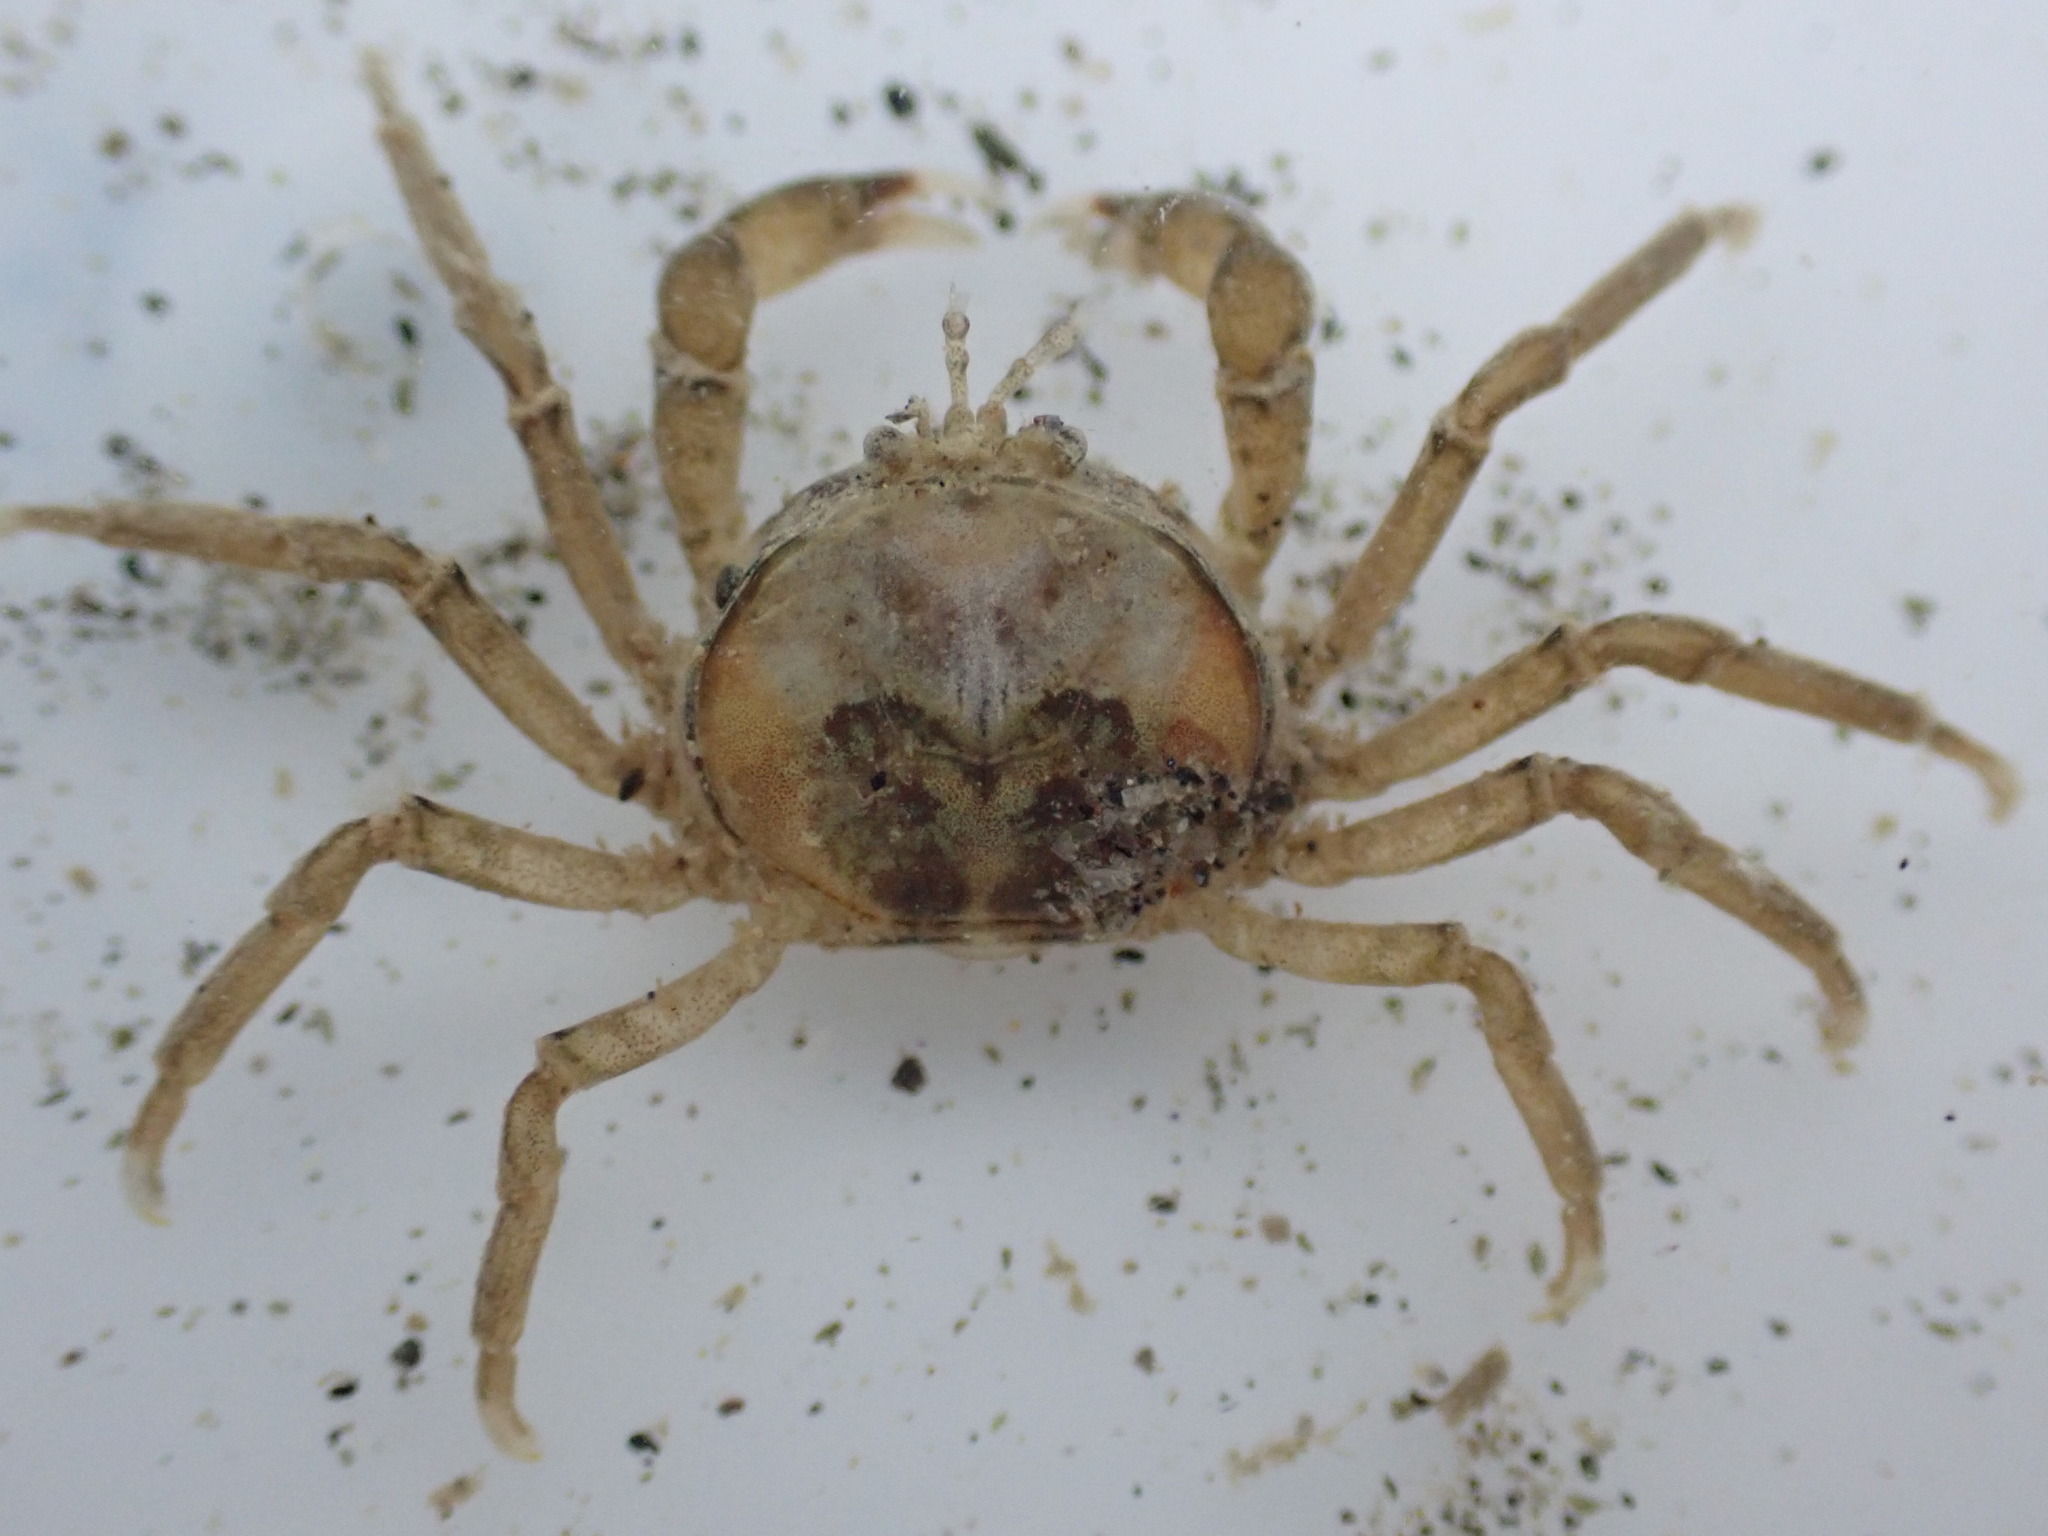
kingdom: Animalia
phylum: Arthropoda
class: Malacostraca
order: Decapoda
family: Hymenosomatidae
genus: Halicarcinus
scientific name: Halicarcinus quoyi
